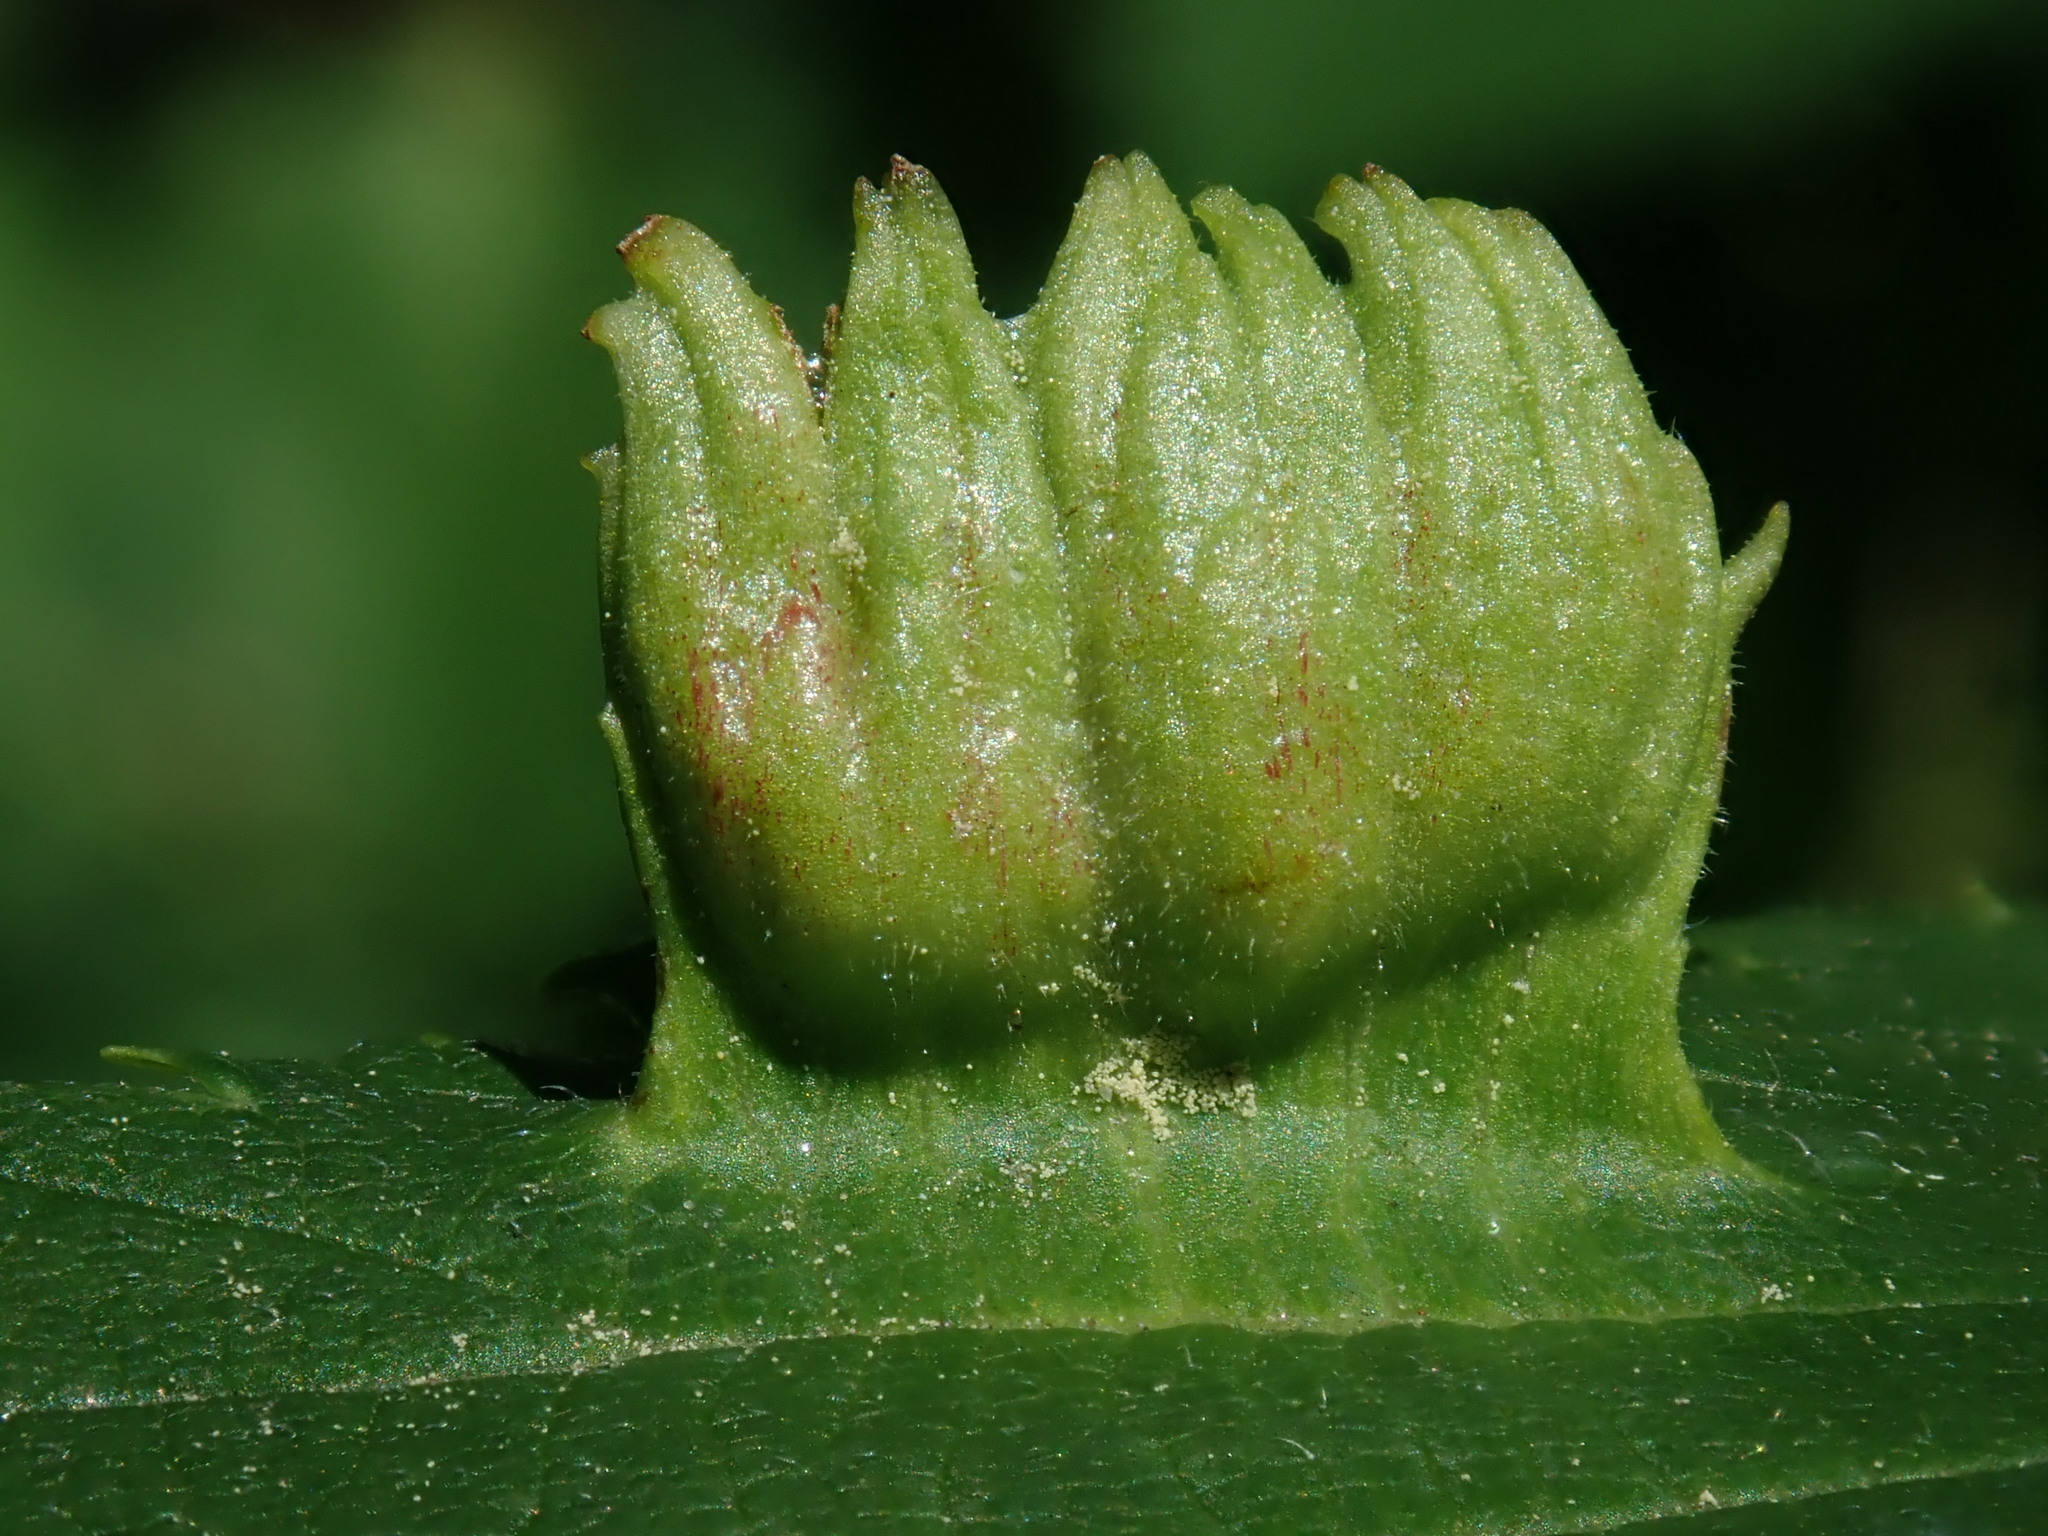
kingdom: Animalia
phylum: Arthropoda
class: Insecta
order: Hemiptera
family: Aphididae
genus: Colopha
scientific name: Colopha ulmicola
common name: Elm cockscombgall aphid
